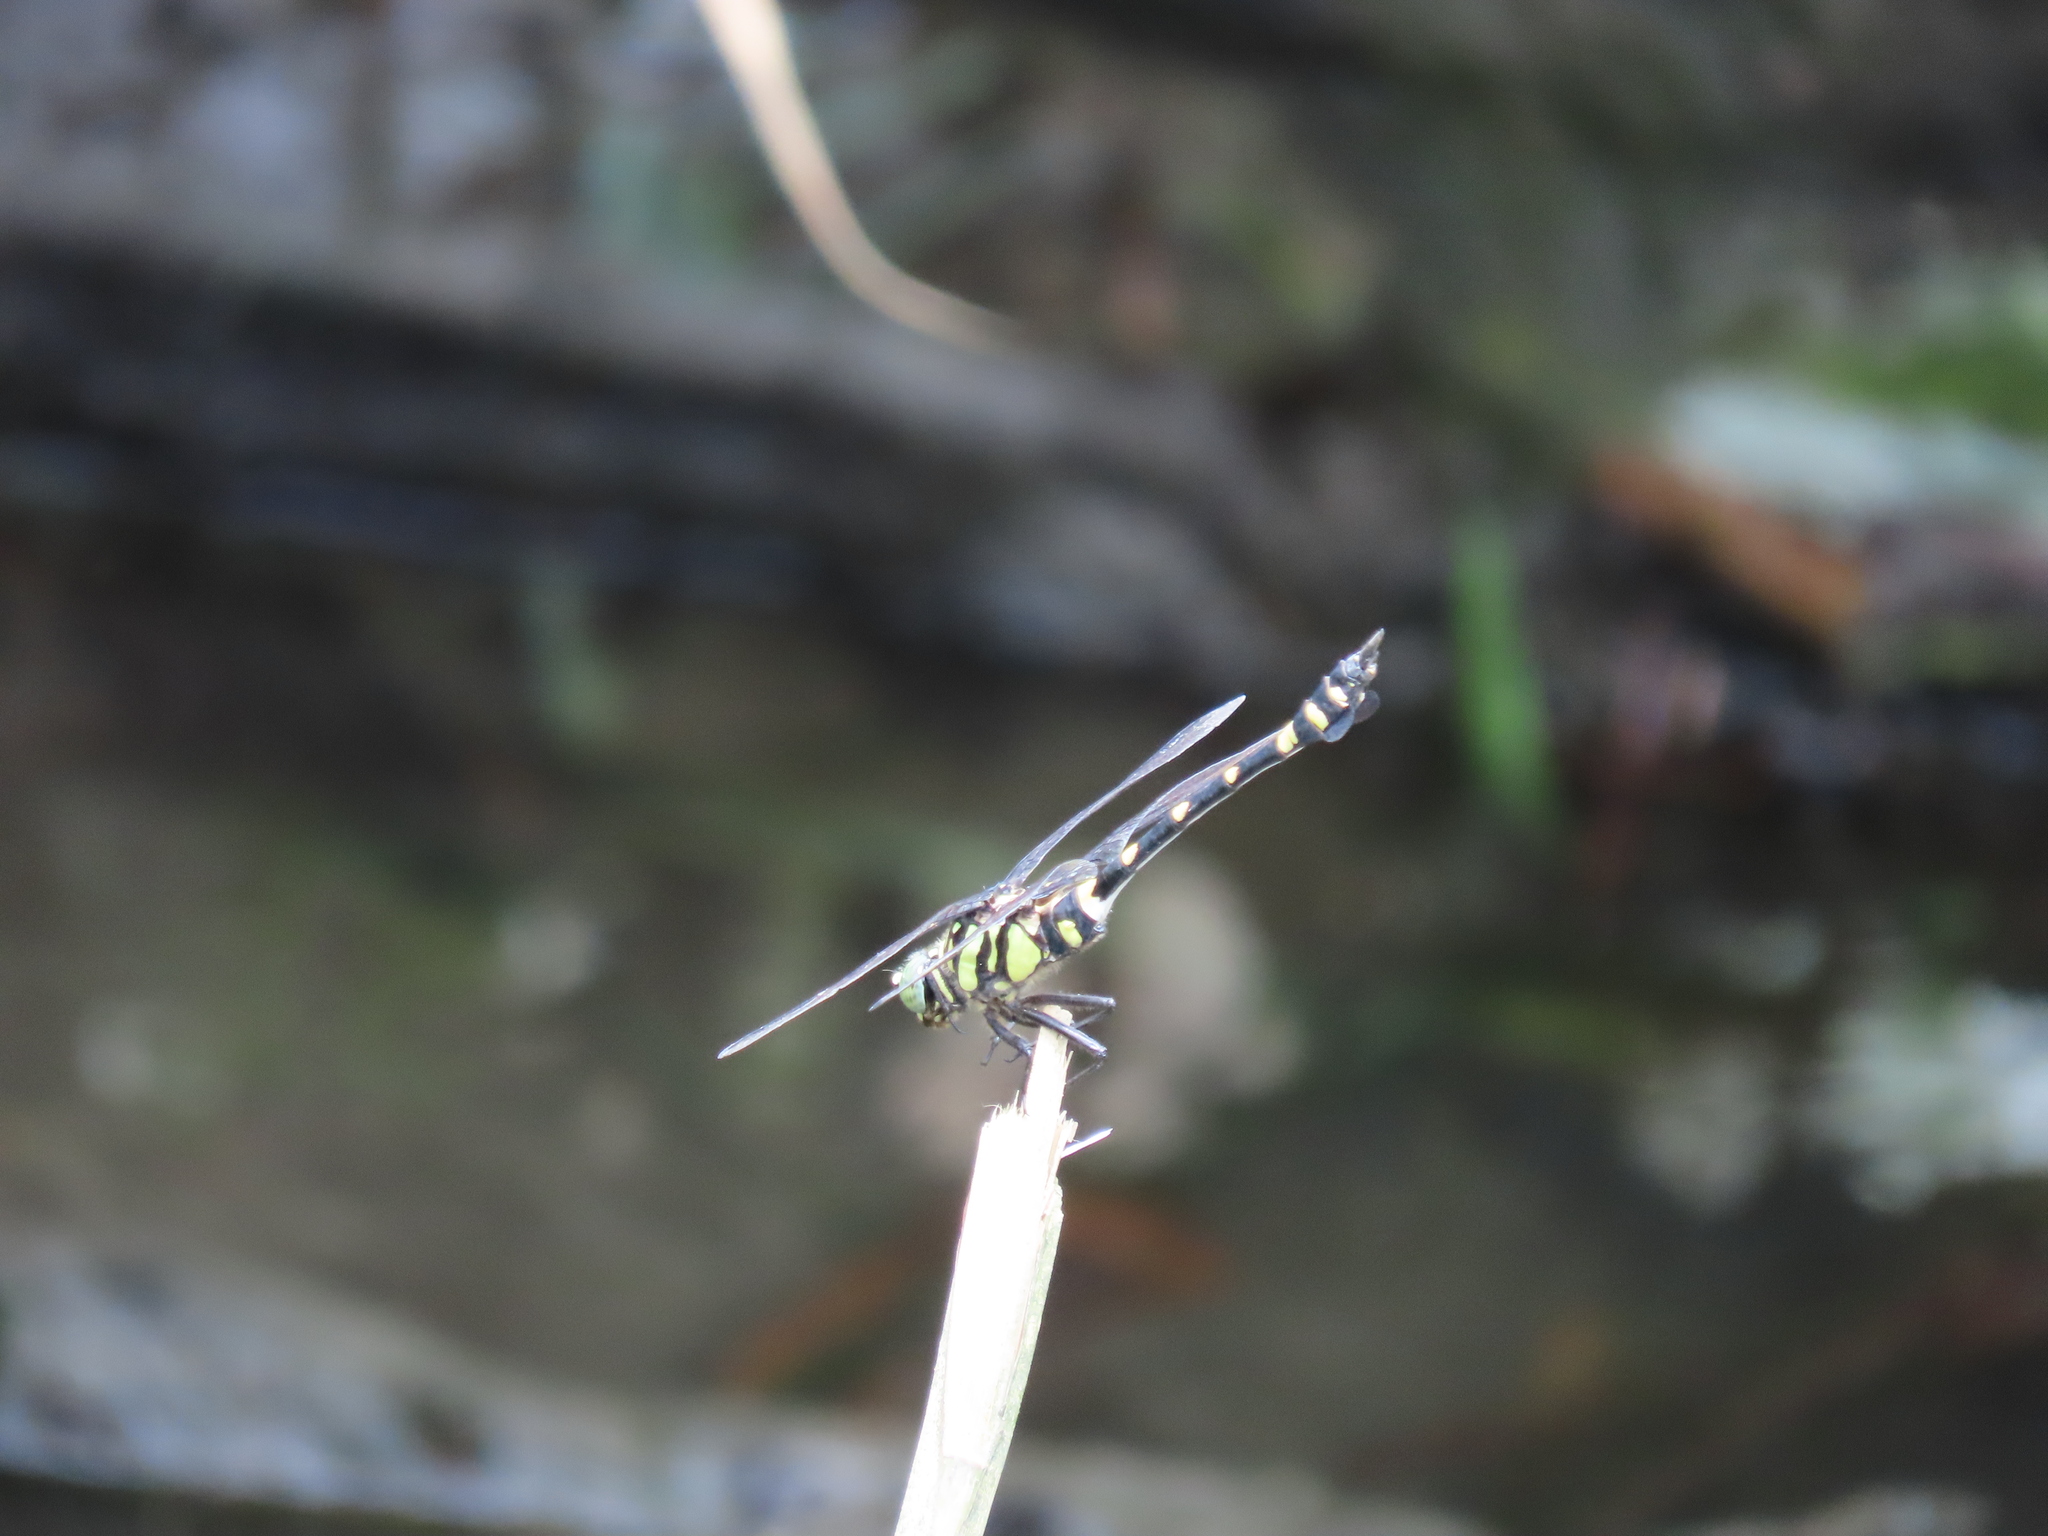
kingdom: Animalia
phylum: Arthropoda
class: Insecta
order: Odonata
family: Gomphidae
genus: Ictinogomphus
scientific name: Ictinogomphus rapax
